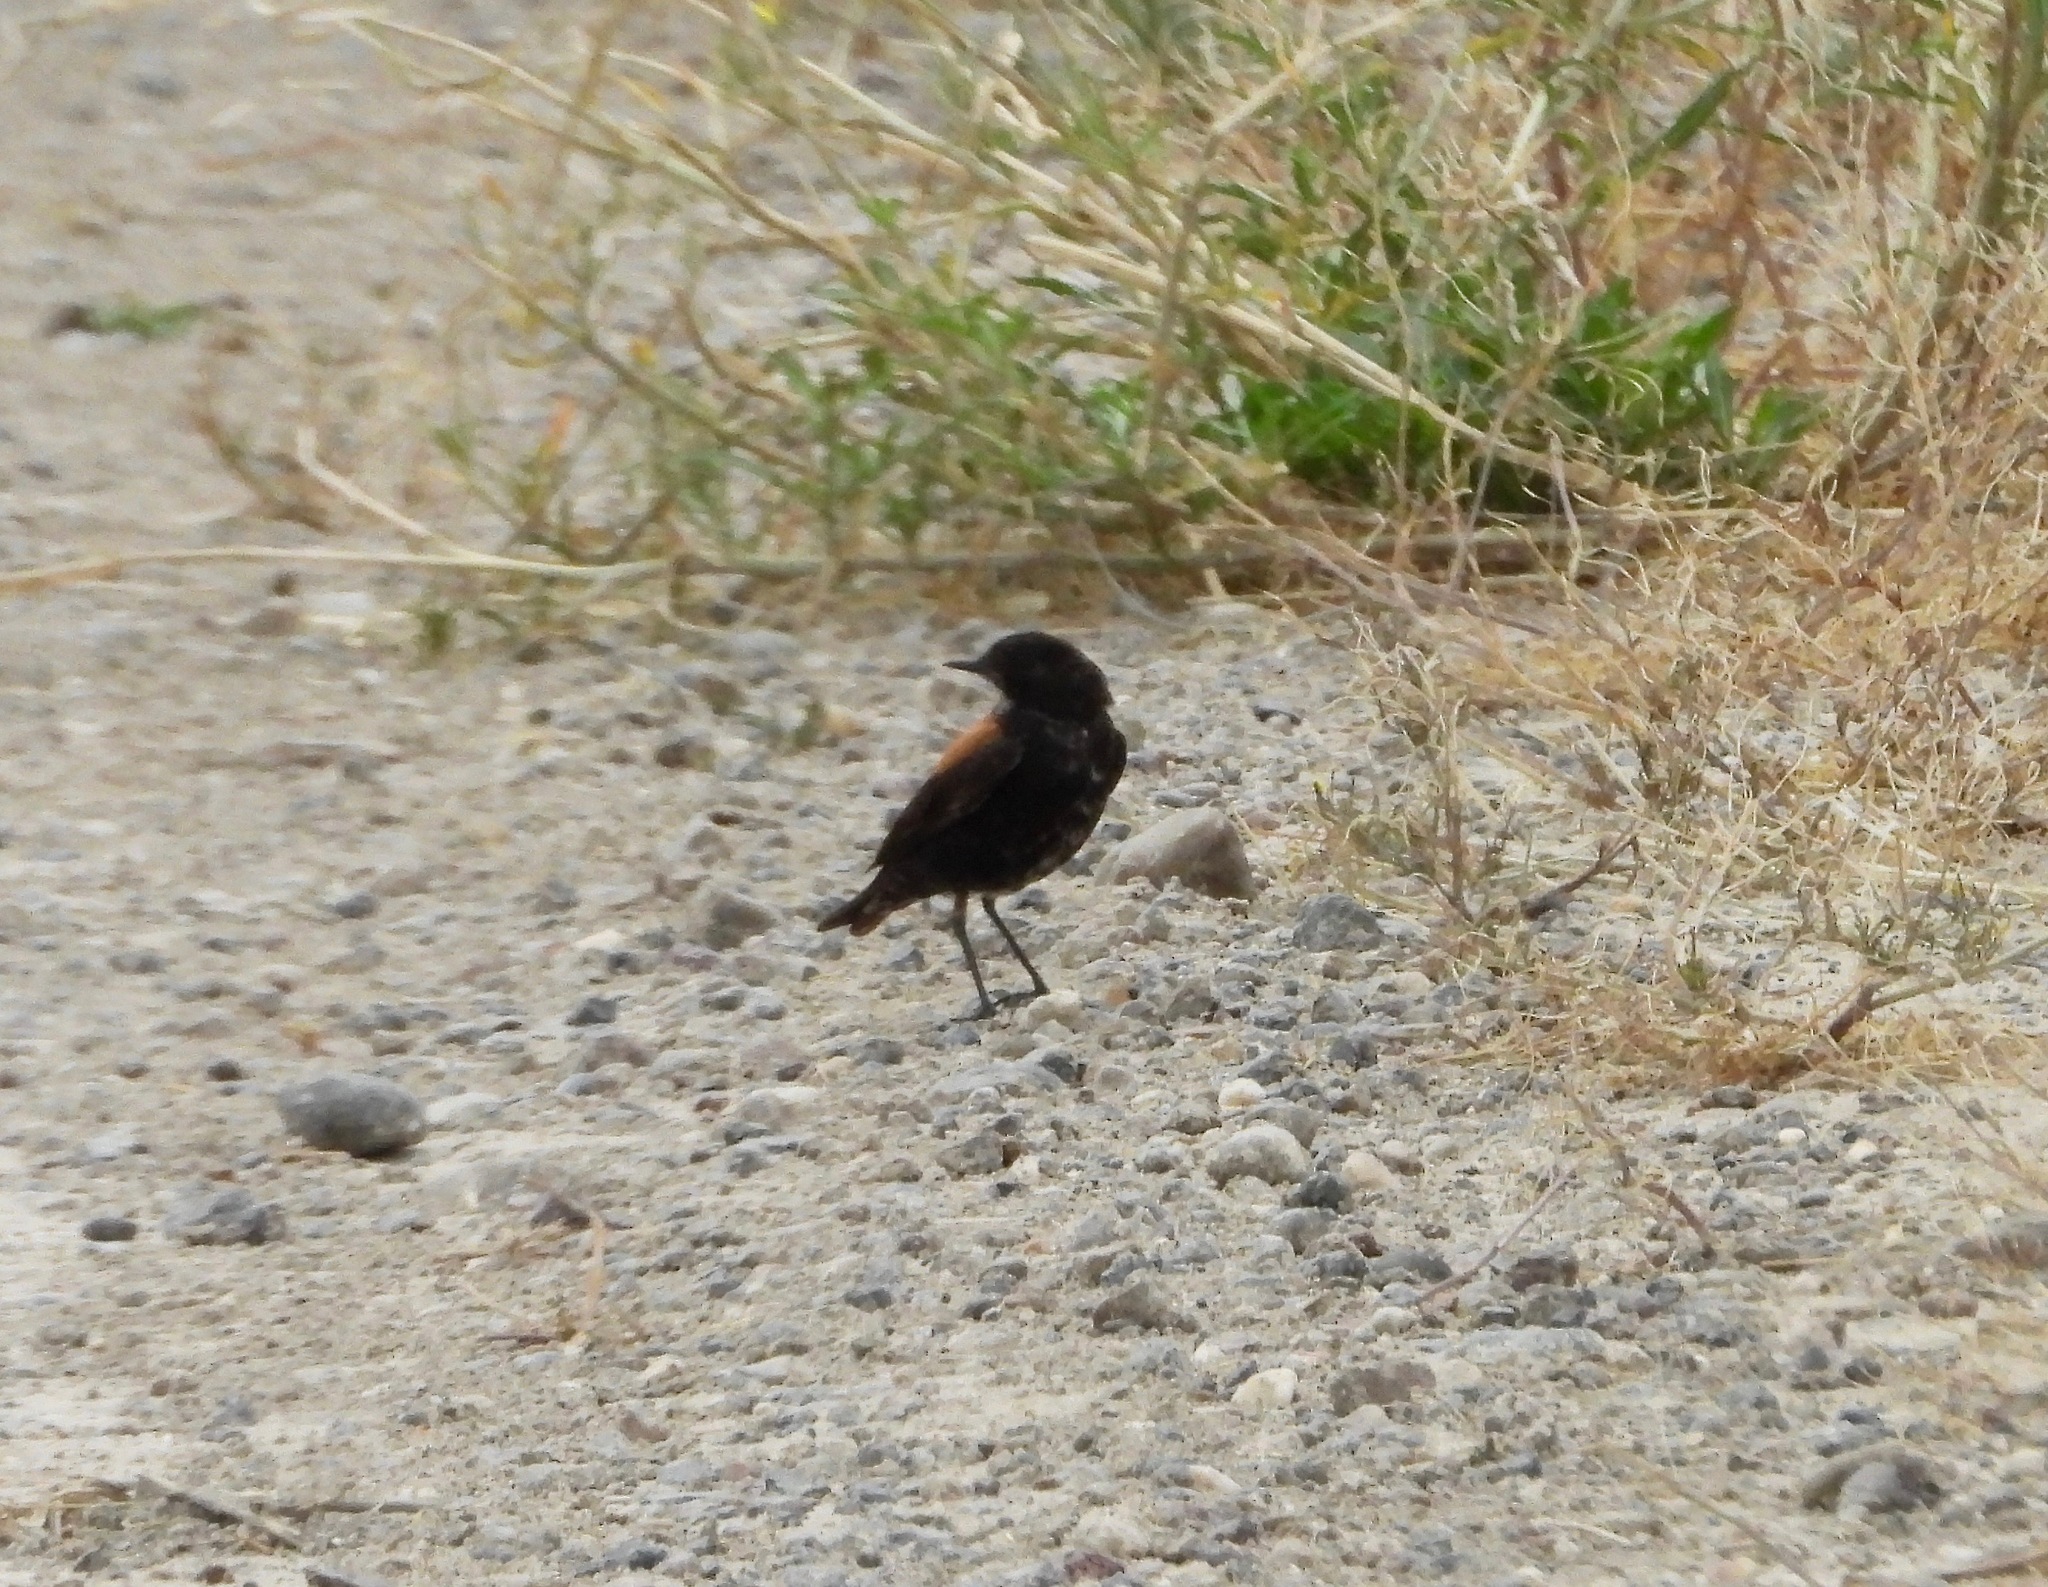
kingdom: Animalia
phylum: Chordata
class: Aves
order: Passeriformes
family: Tyrannidae
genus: Lessonia
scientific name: Lessonia rufa
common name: Austral negrito
